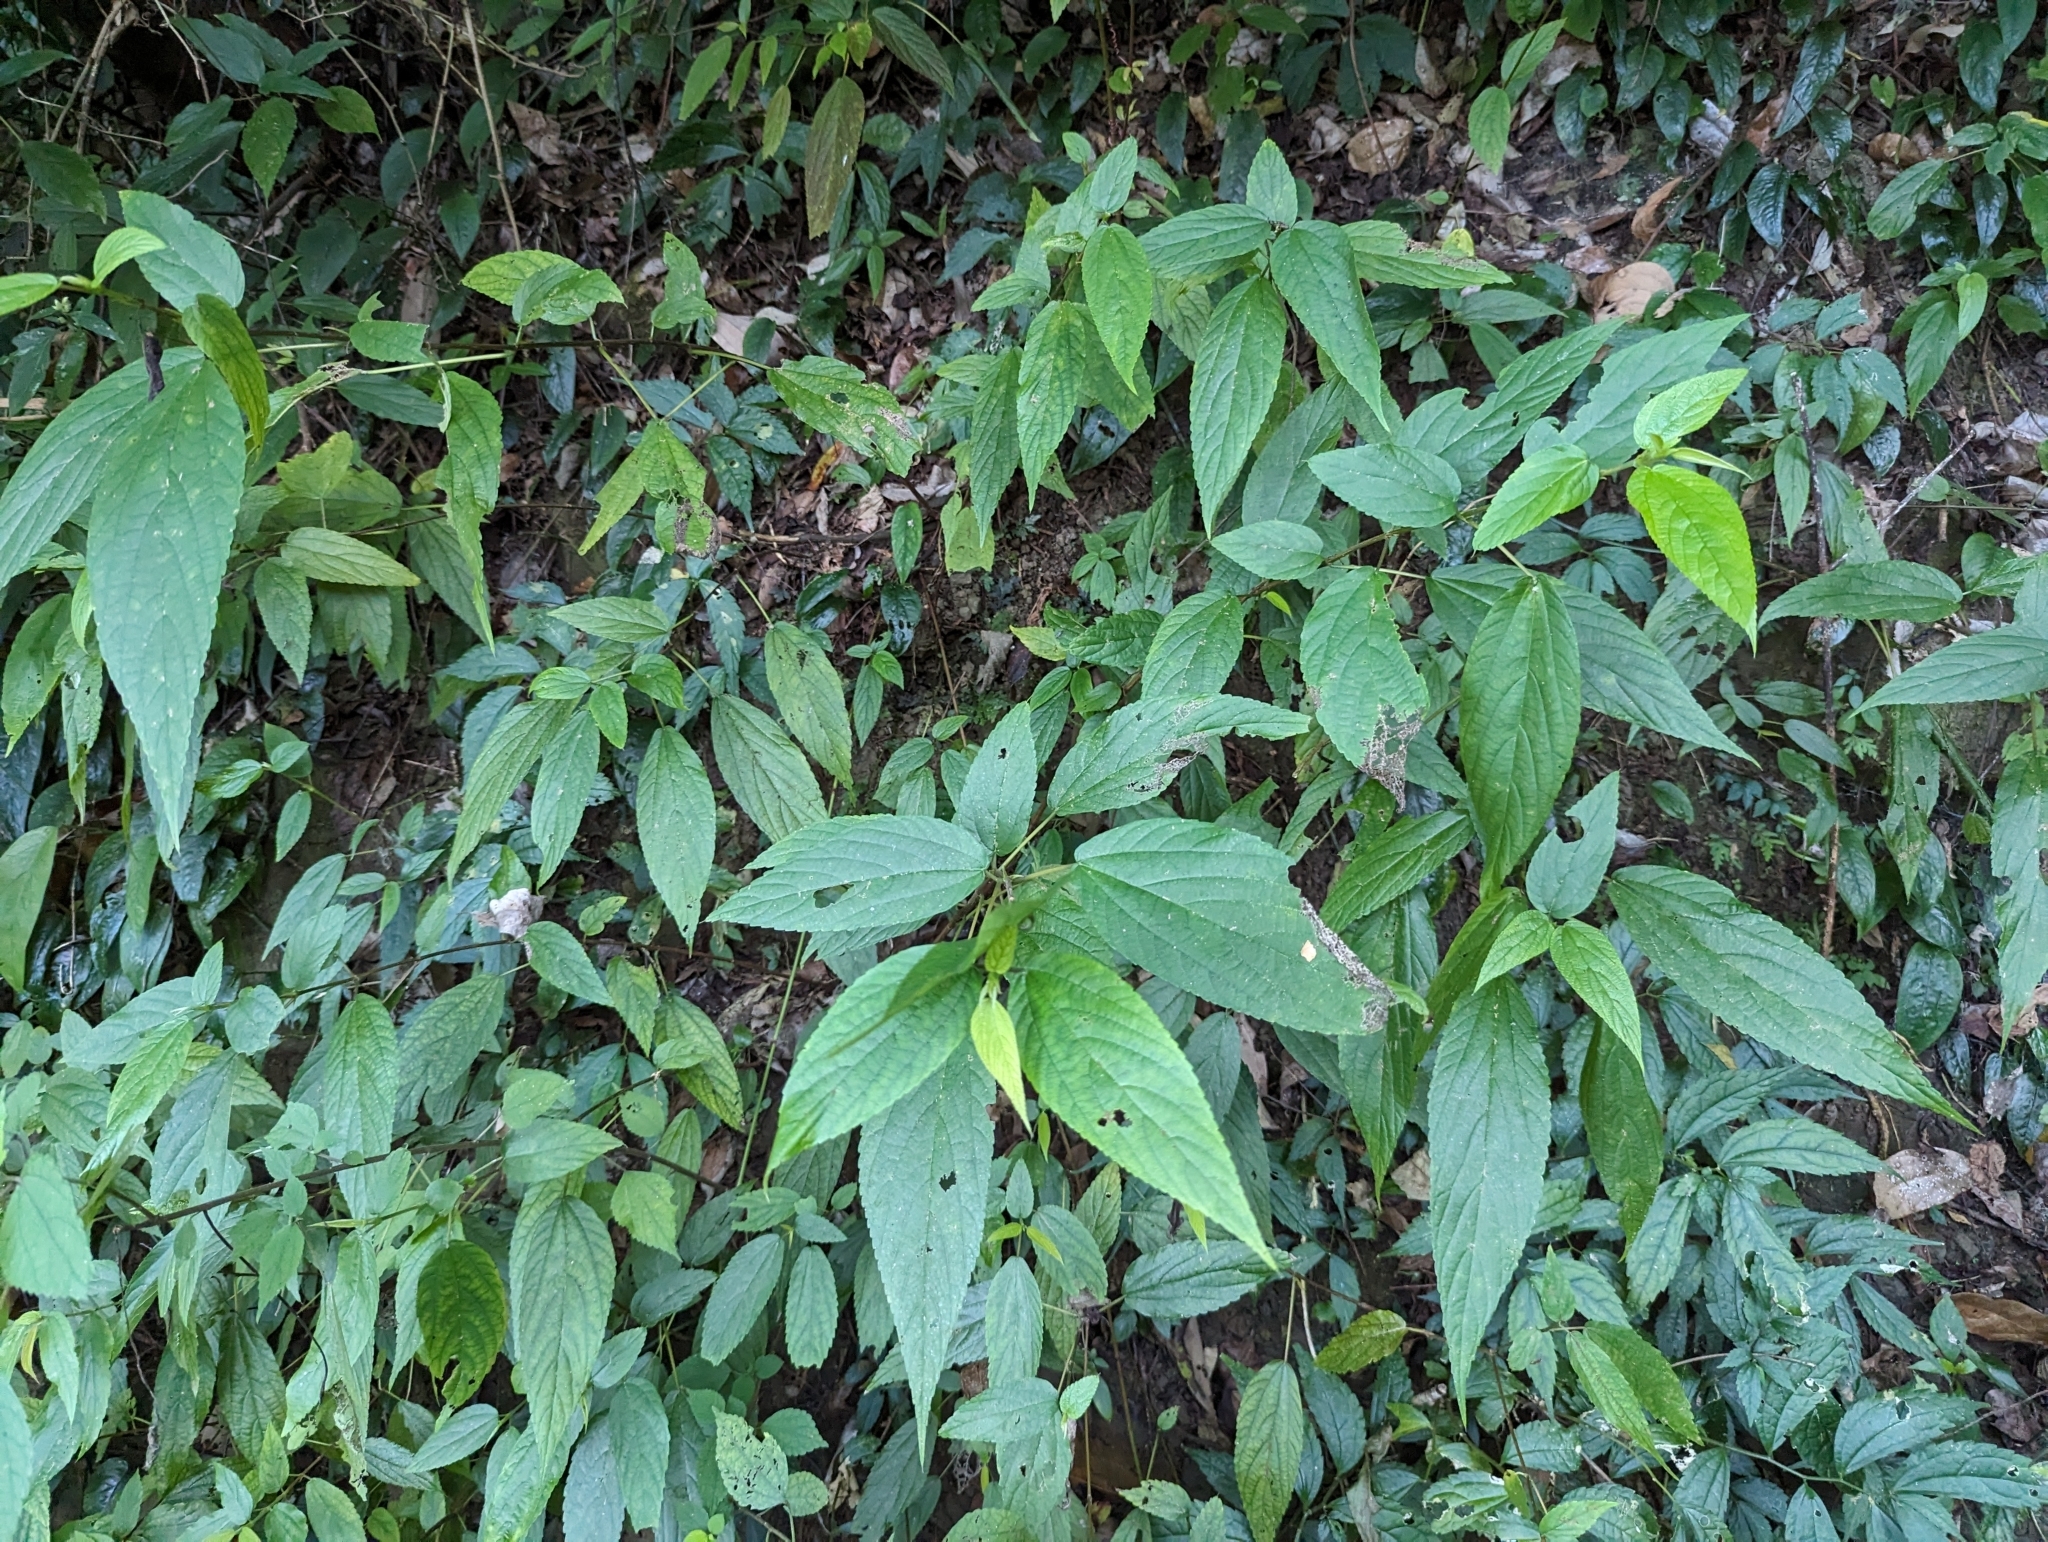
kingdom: Plantae
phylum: Tracheophyta
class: Magnoliopsida
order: Rosales
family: Urticaceae
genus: Boehmeria
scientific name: Boehmeria zollingeriana
